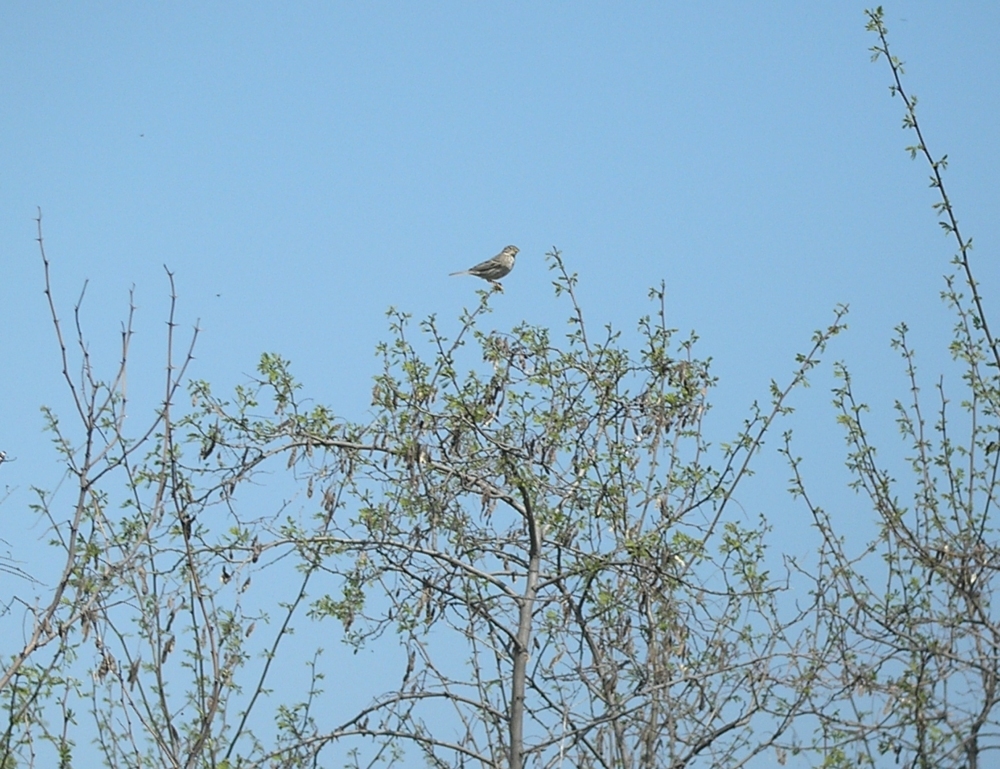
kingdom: Animalia
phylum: Chordata
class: Aves
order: Passeriformes
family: Emberizidae
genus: Emberiza
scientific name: Emberiza calandra
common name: Corn bunting
